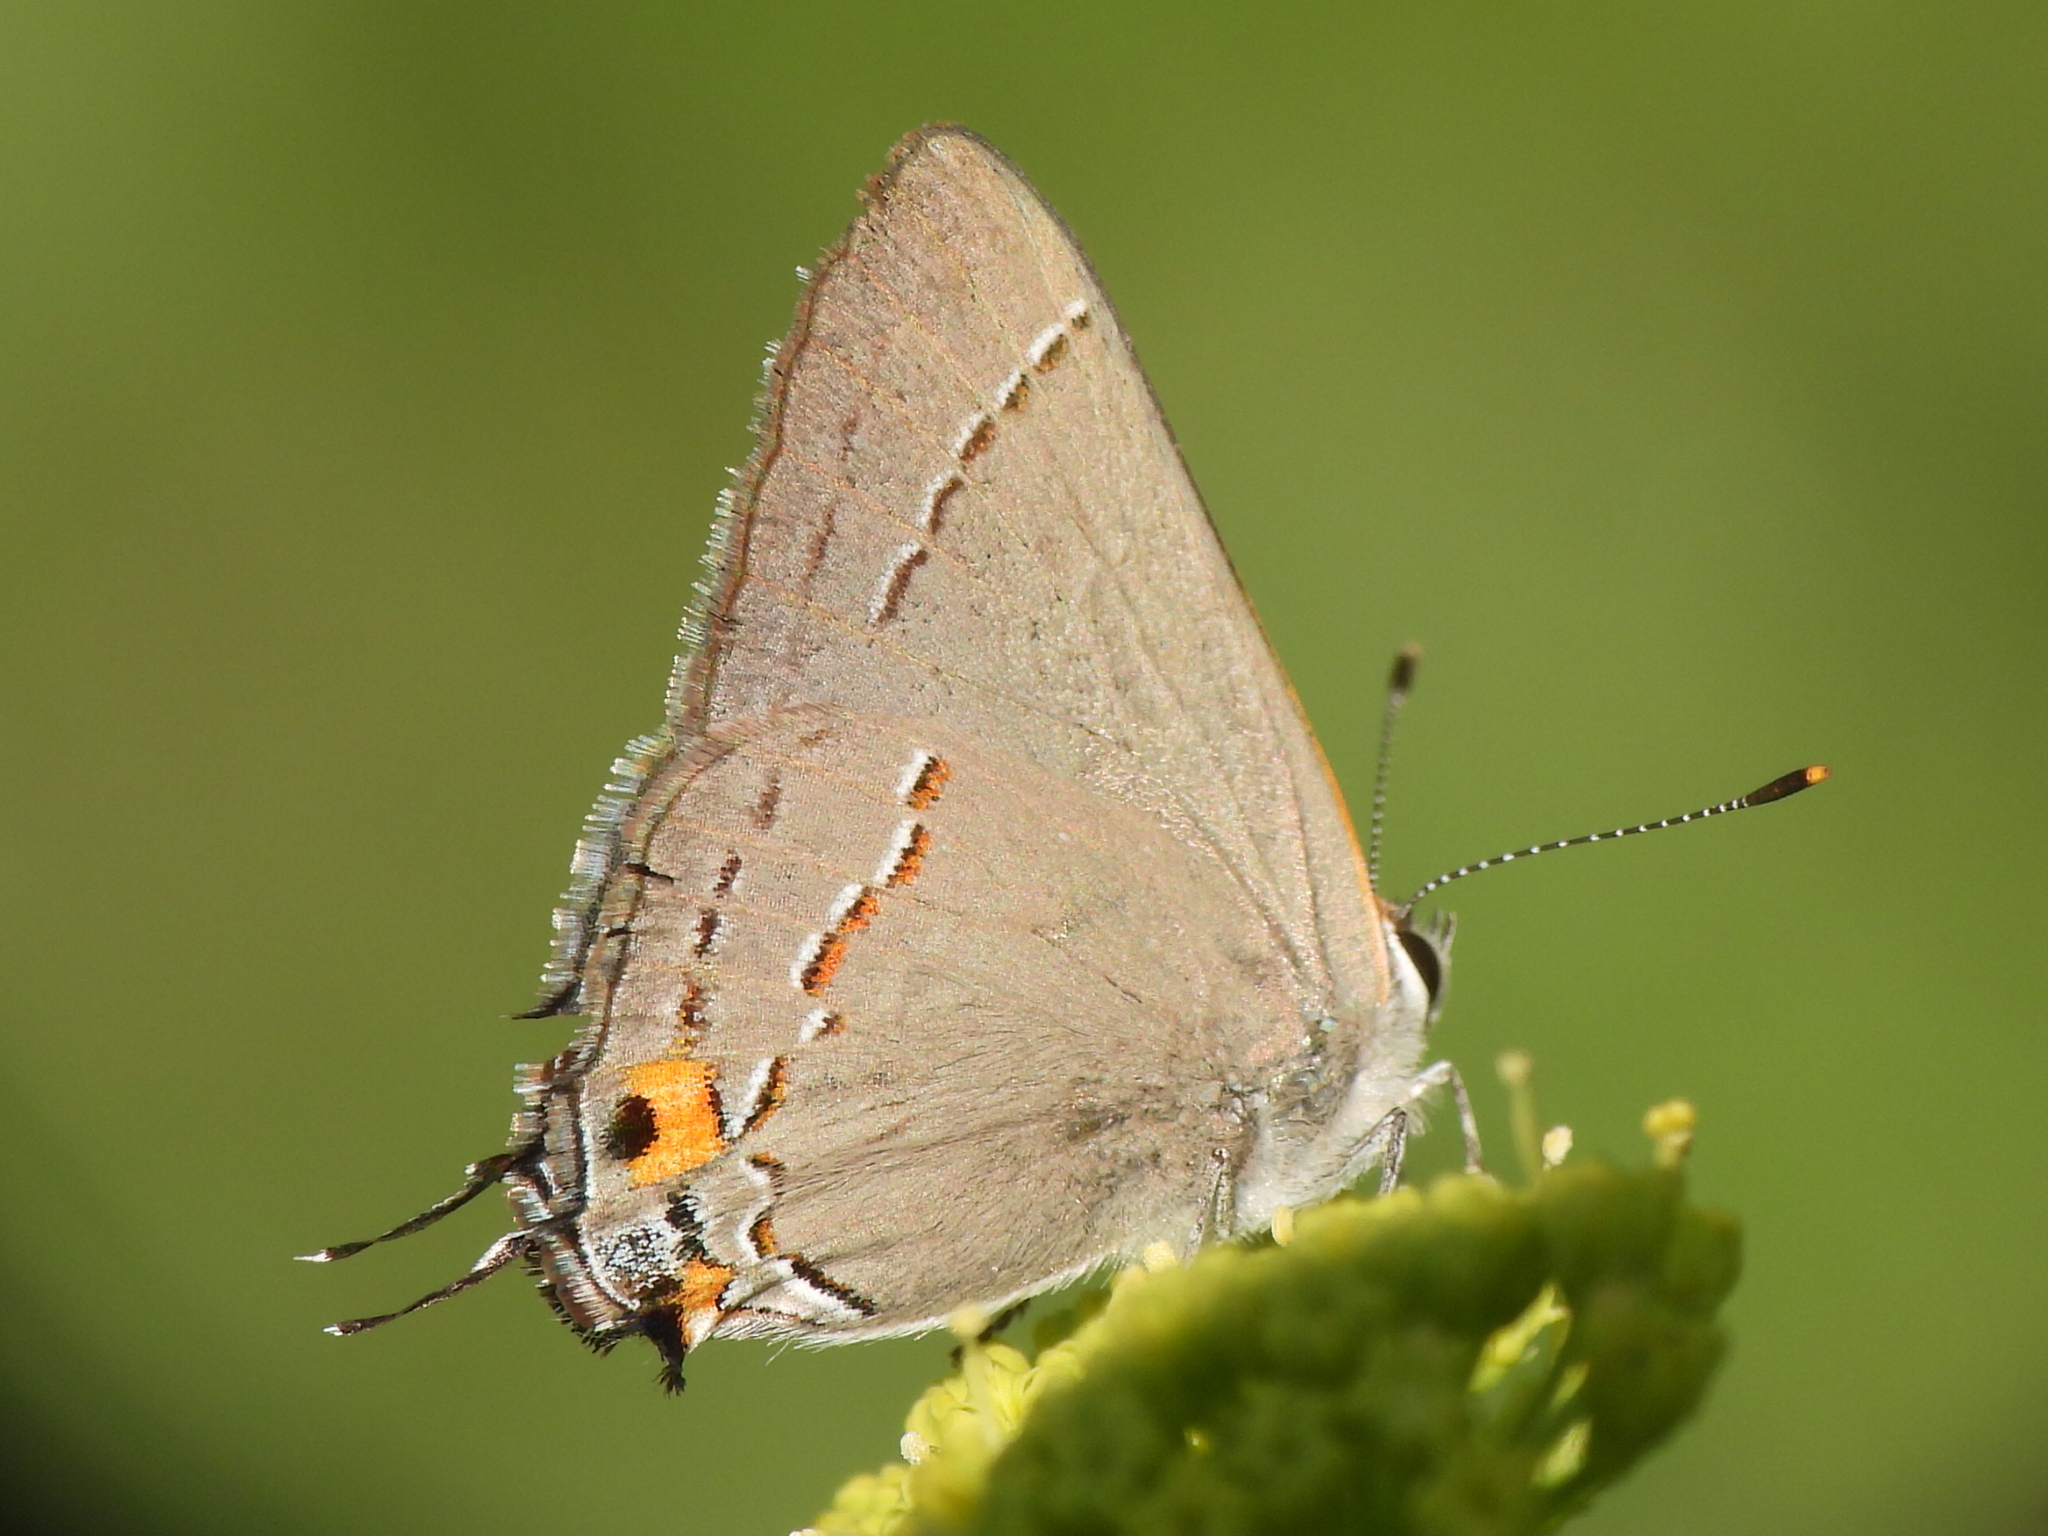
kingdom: Animalia
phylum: Arthropoda
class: Insecta
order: Lepidoptera
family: Lycaenidae
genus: Strymon
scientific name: Strymon melinus
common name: Gray hairstreak
